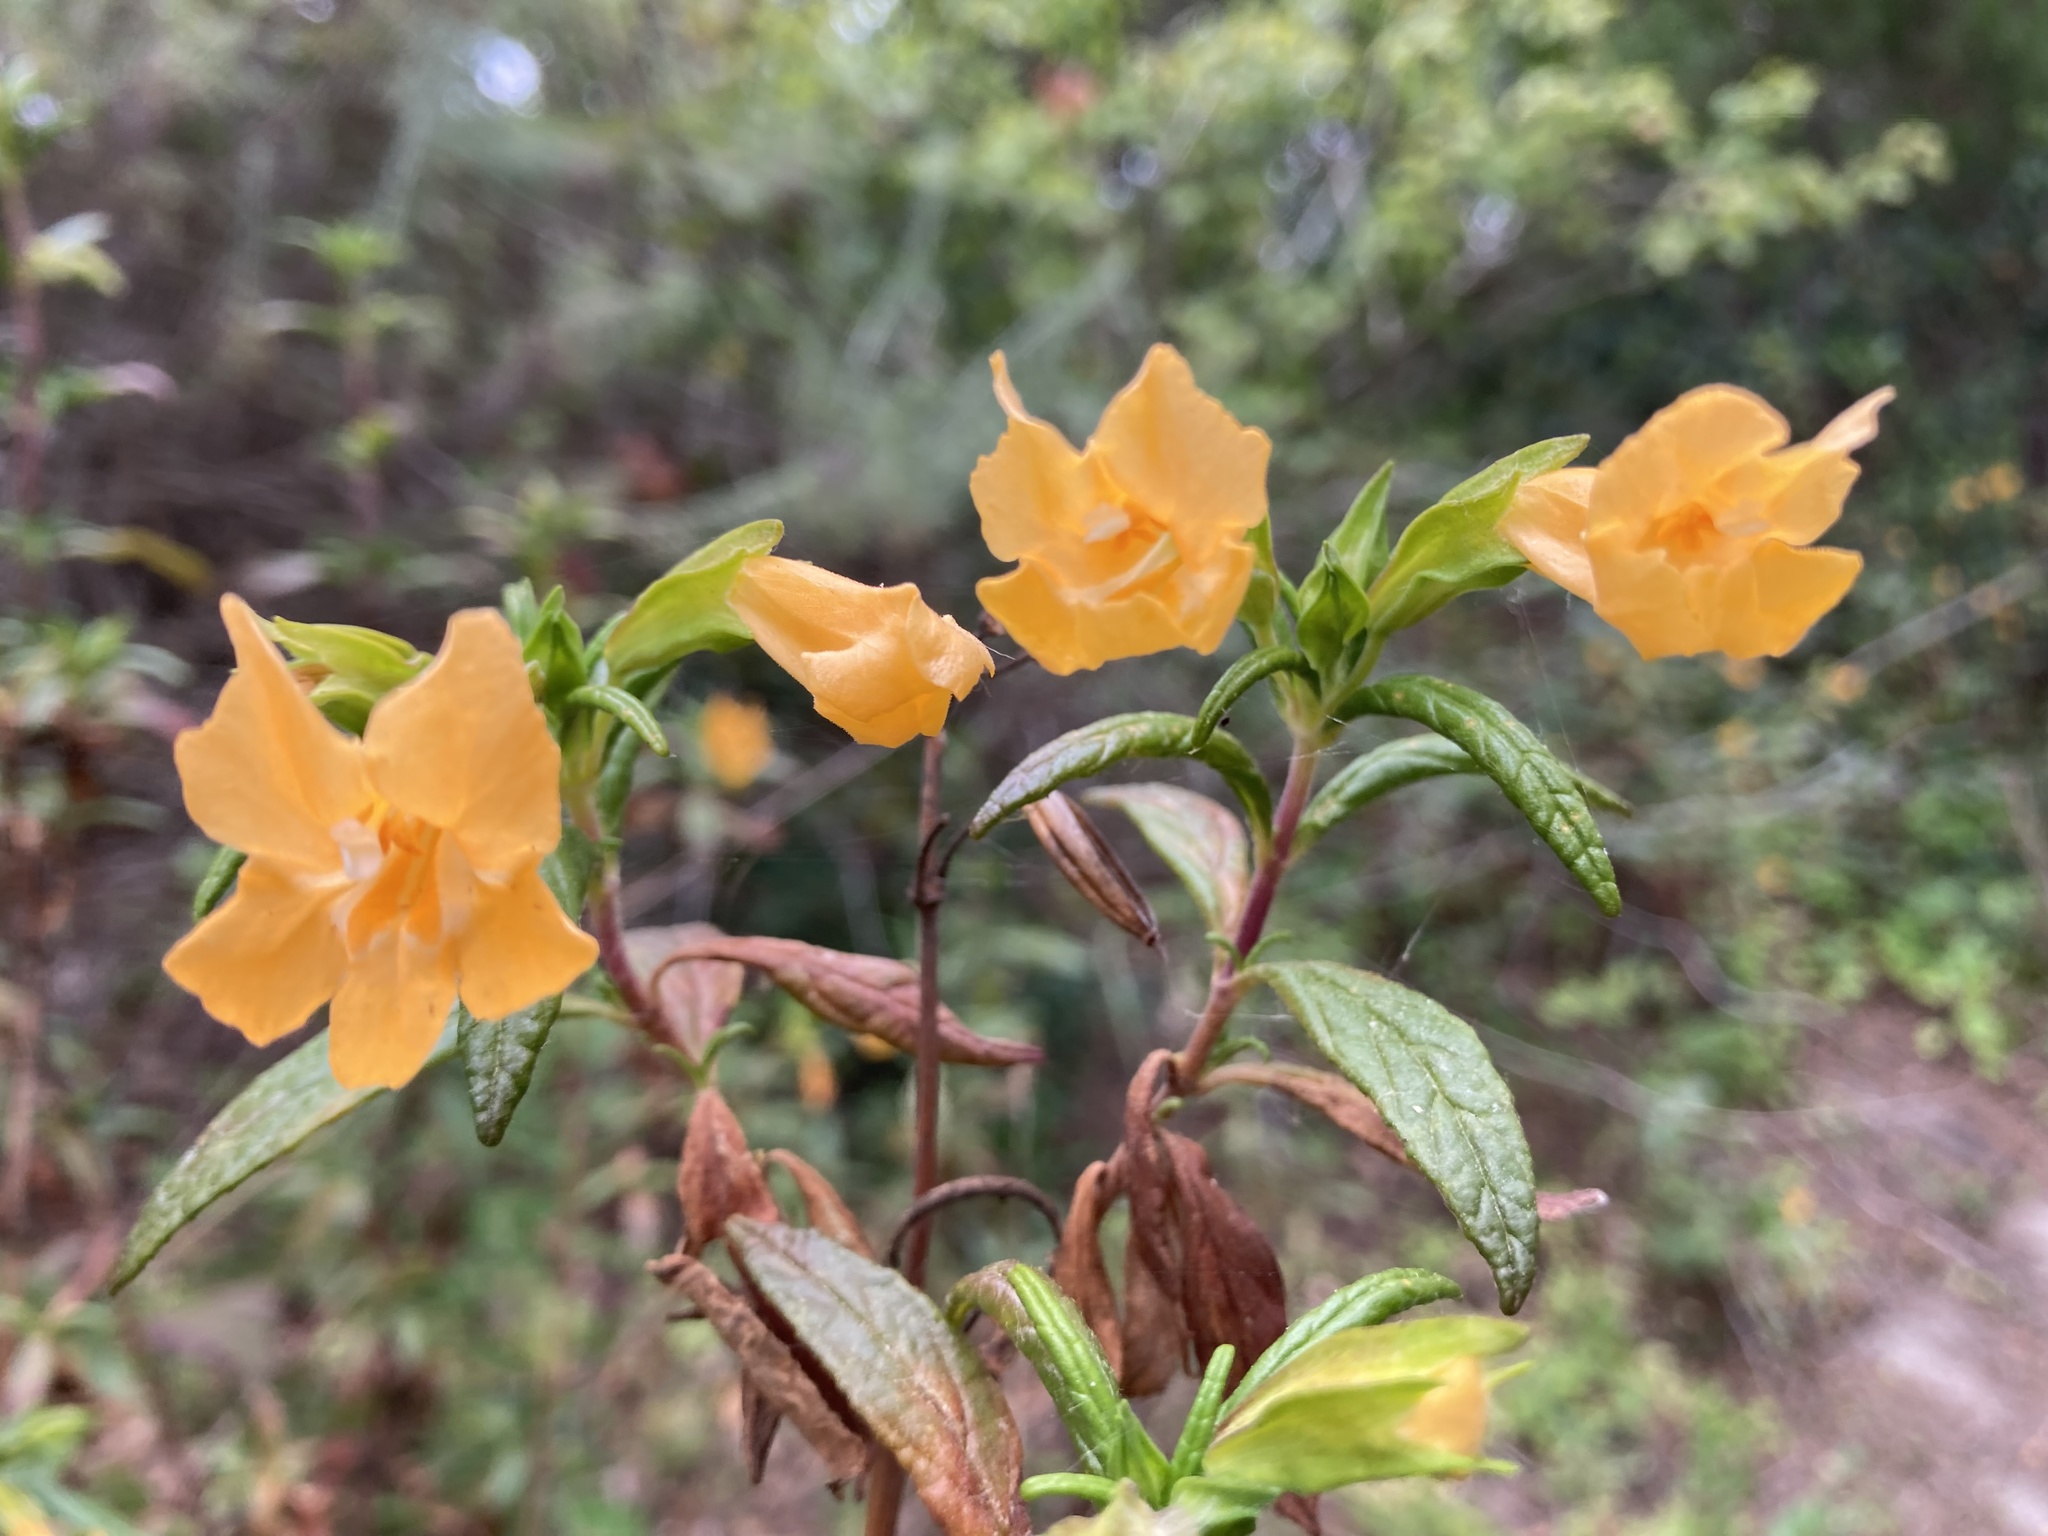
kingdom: Plantae
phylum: Tracheophyta
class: Magnoliopsida
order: Lamiales
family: Phrymaceae
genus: Diplacus
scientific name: Diplacus aurantiacus
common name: Bush monkey-flower
